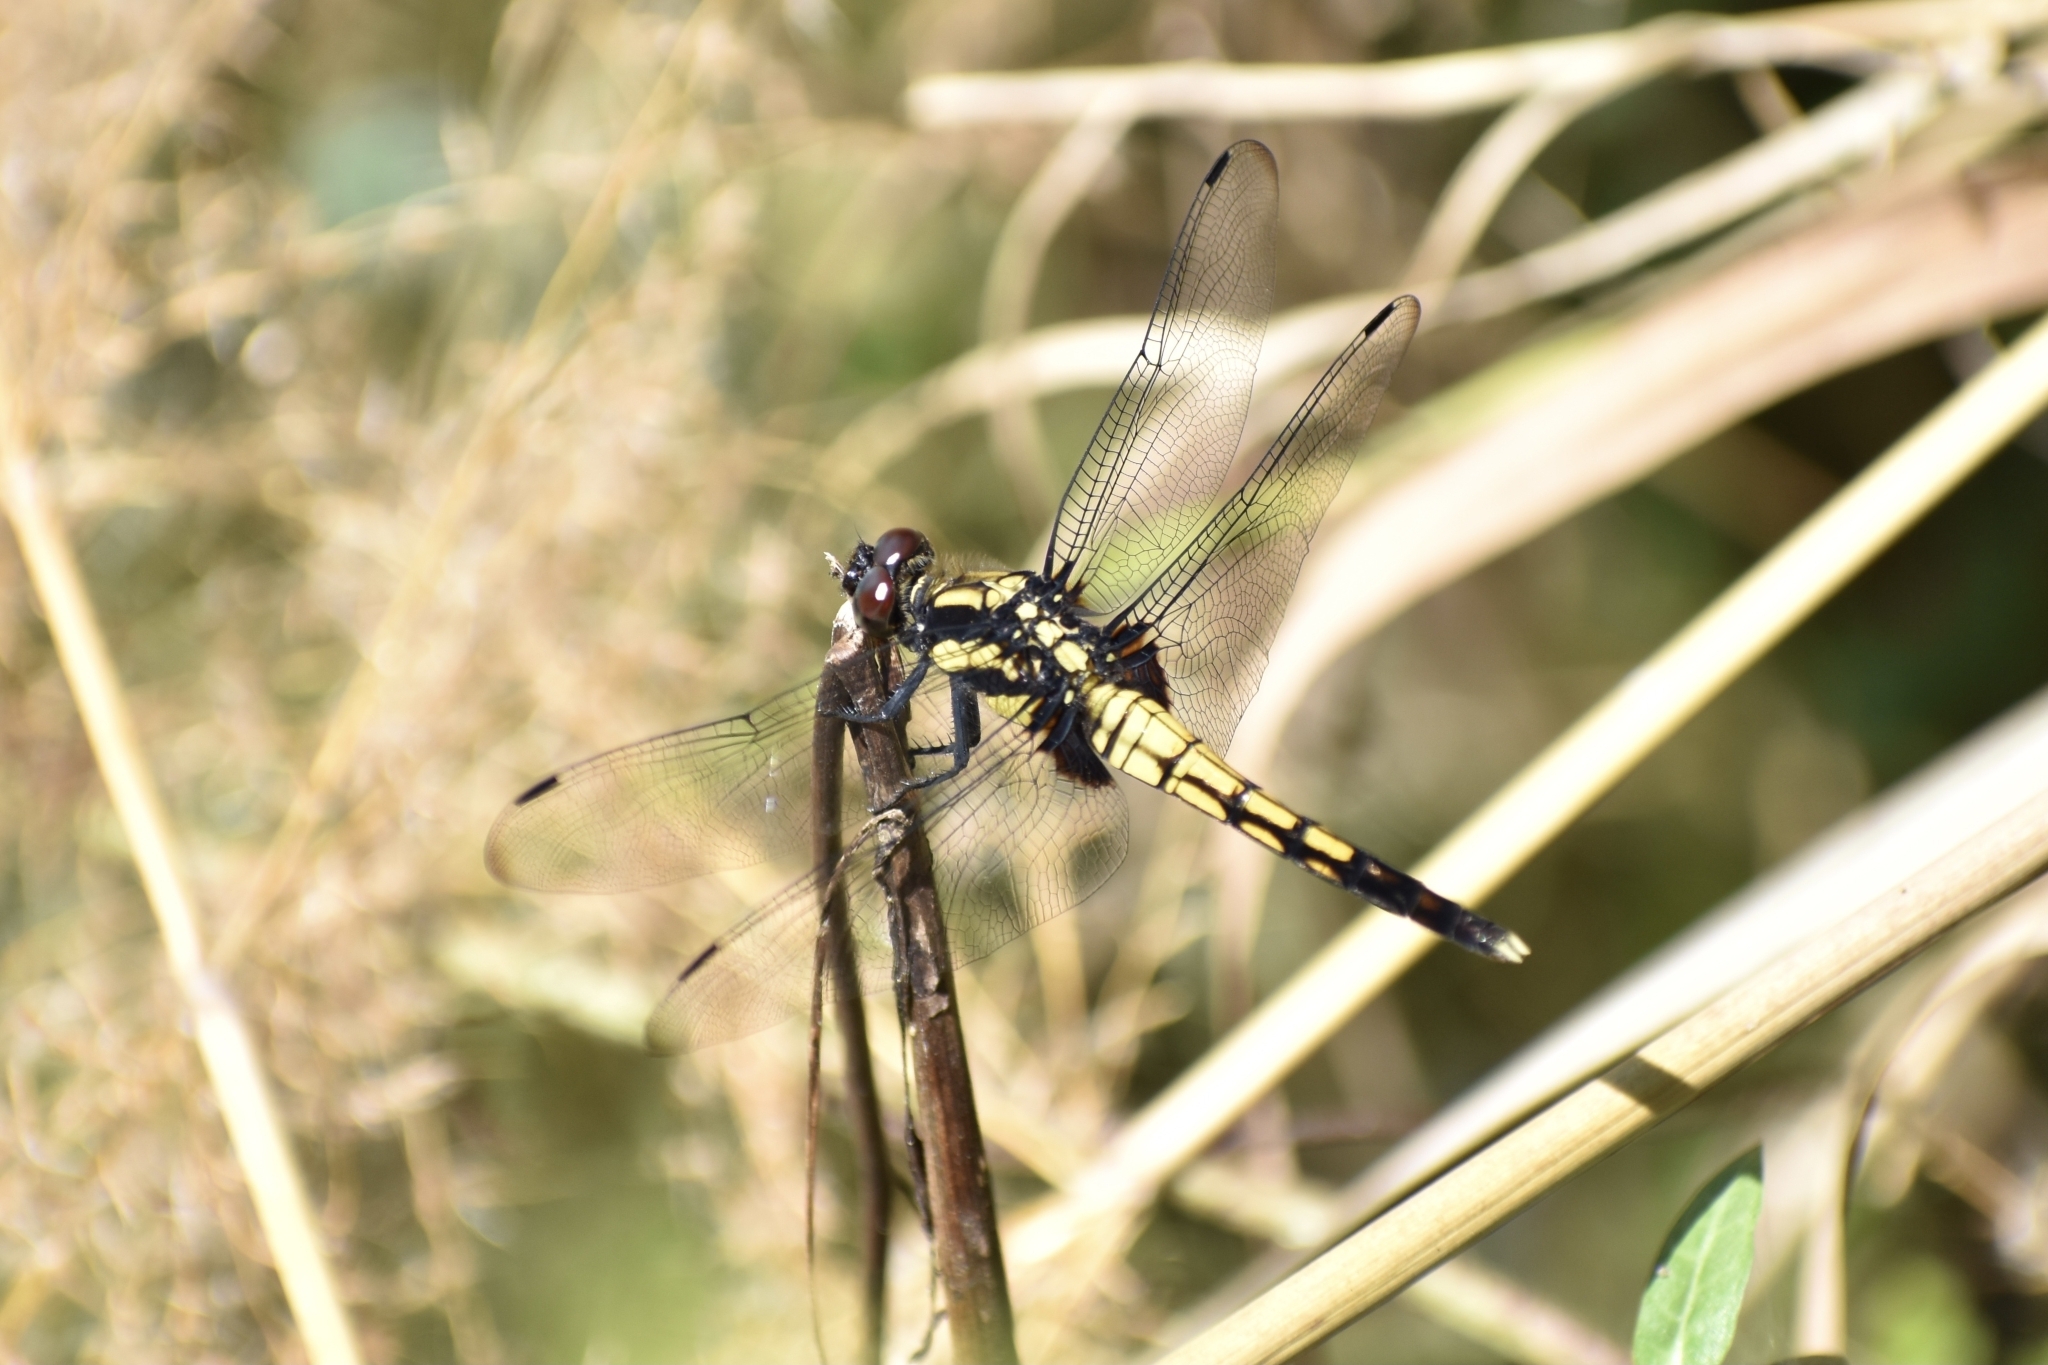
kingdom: Animalia
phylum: Arthropoda
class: Insecta
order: Odonata
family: Libellulidae
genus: Orthetrum
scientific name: Orthetrum melania
